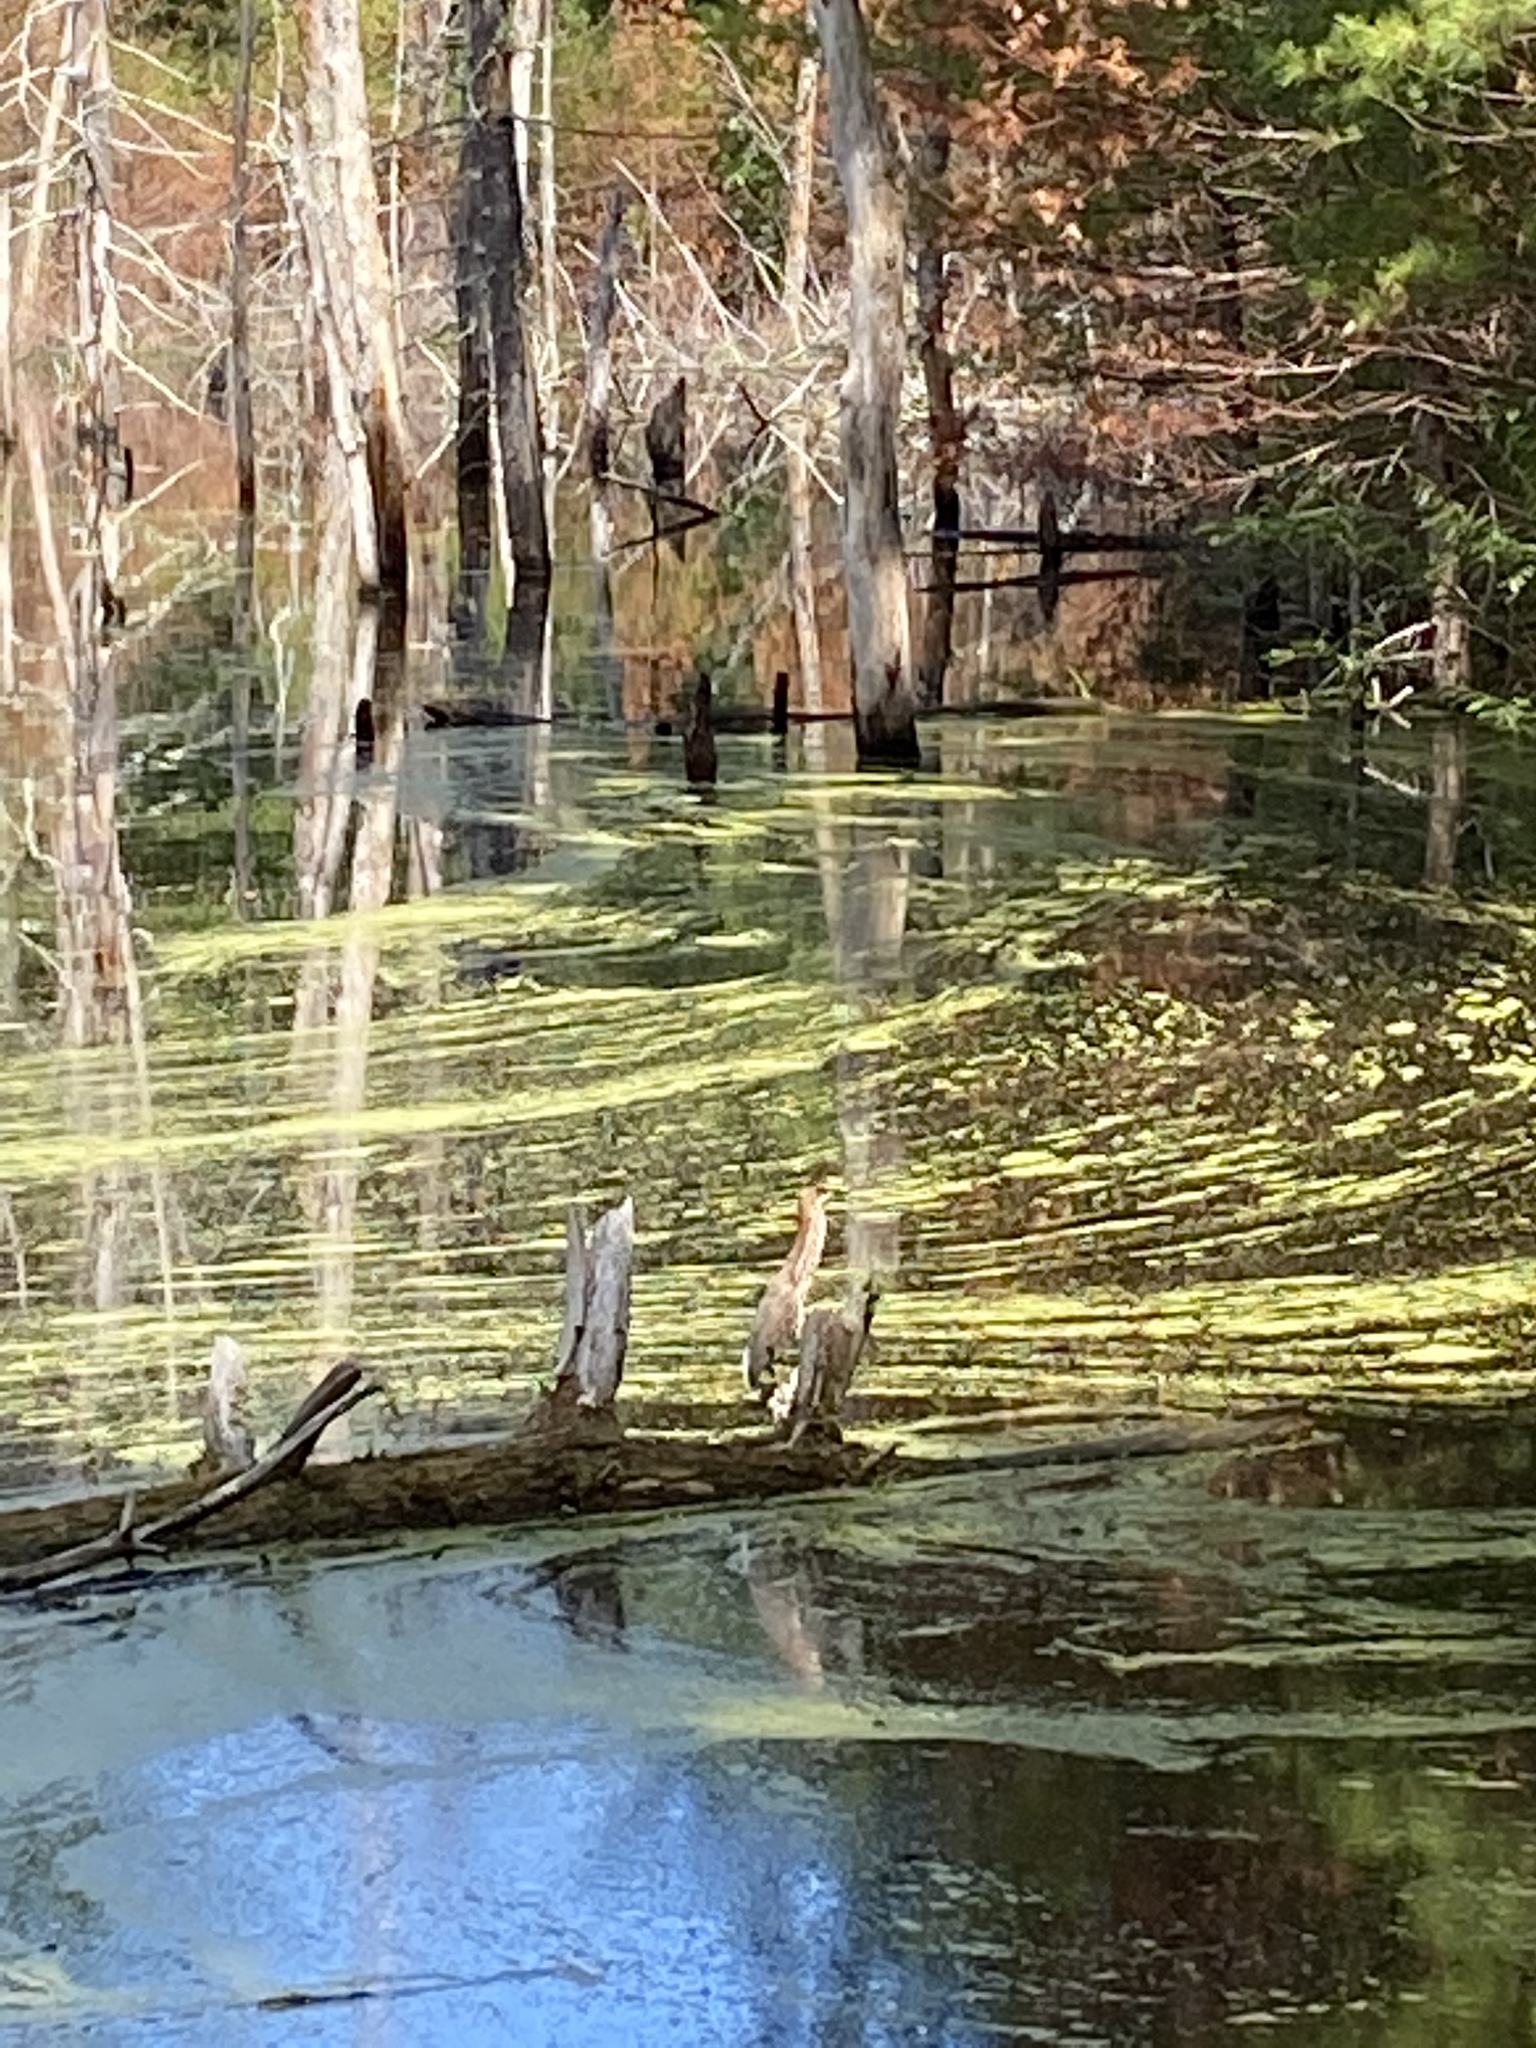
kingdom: Animalia
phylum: Chordata
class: Aves
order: Pelecaniformes
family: Ardeidae
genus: Butorides
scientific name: Butorides virescens
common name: Green heron
